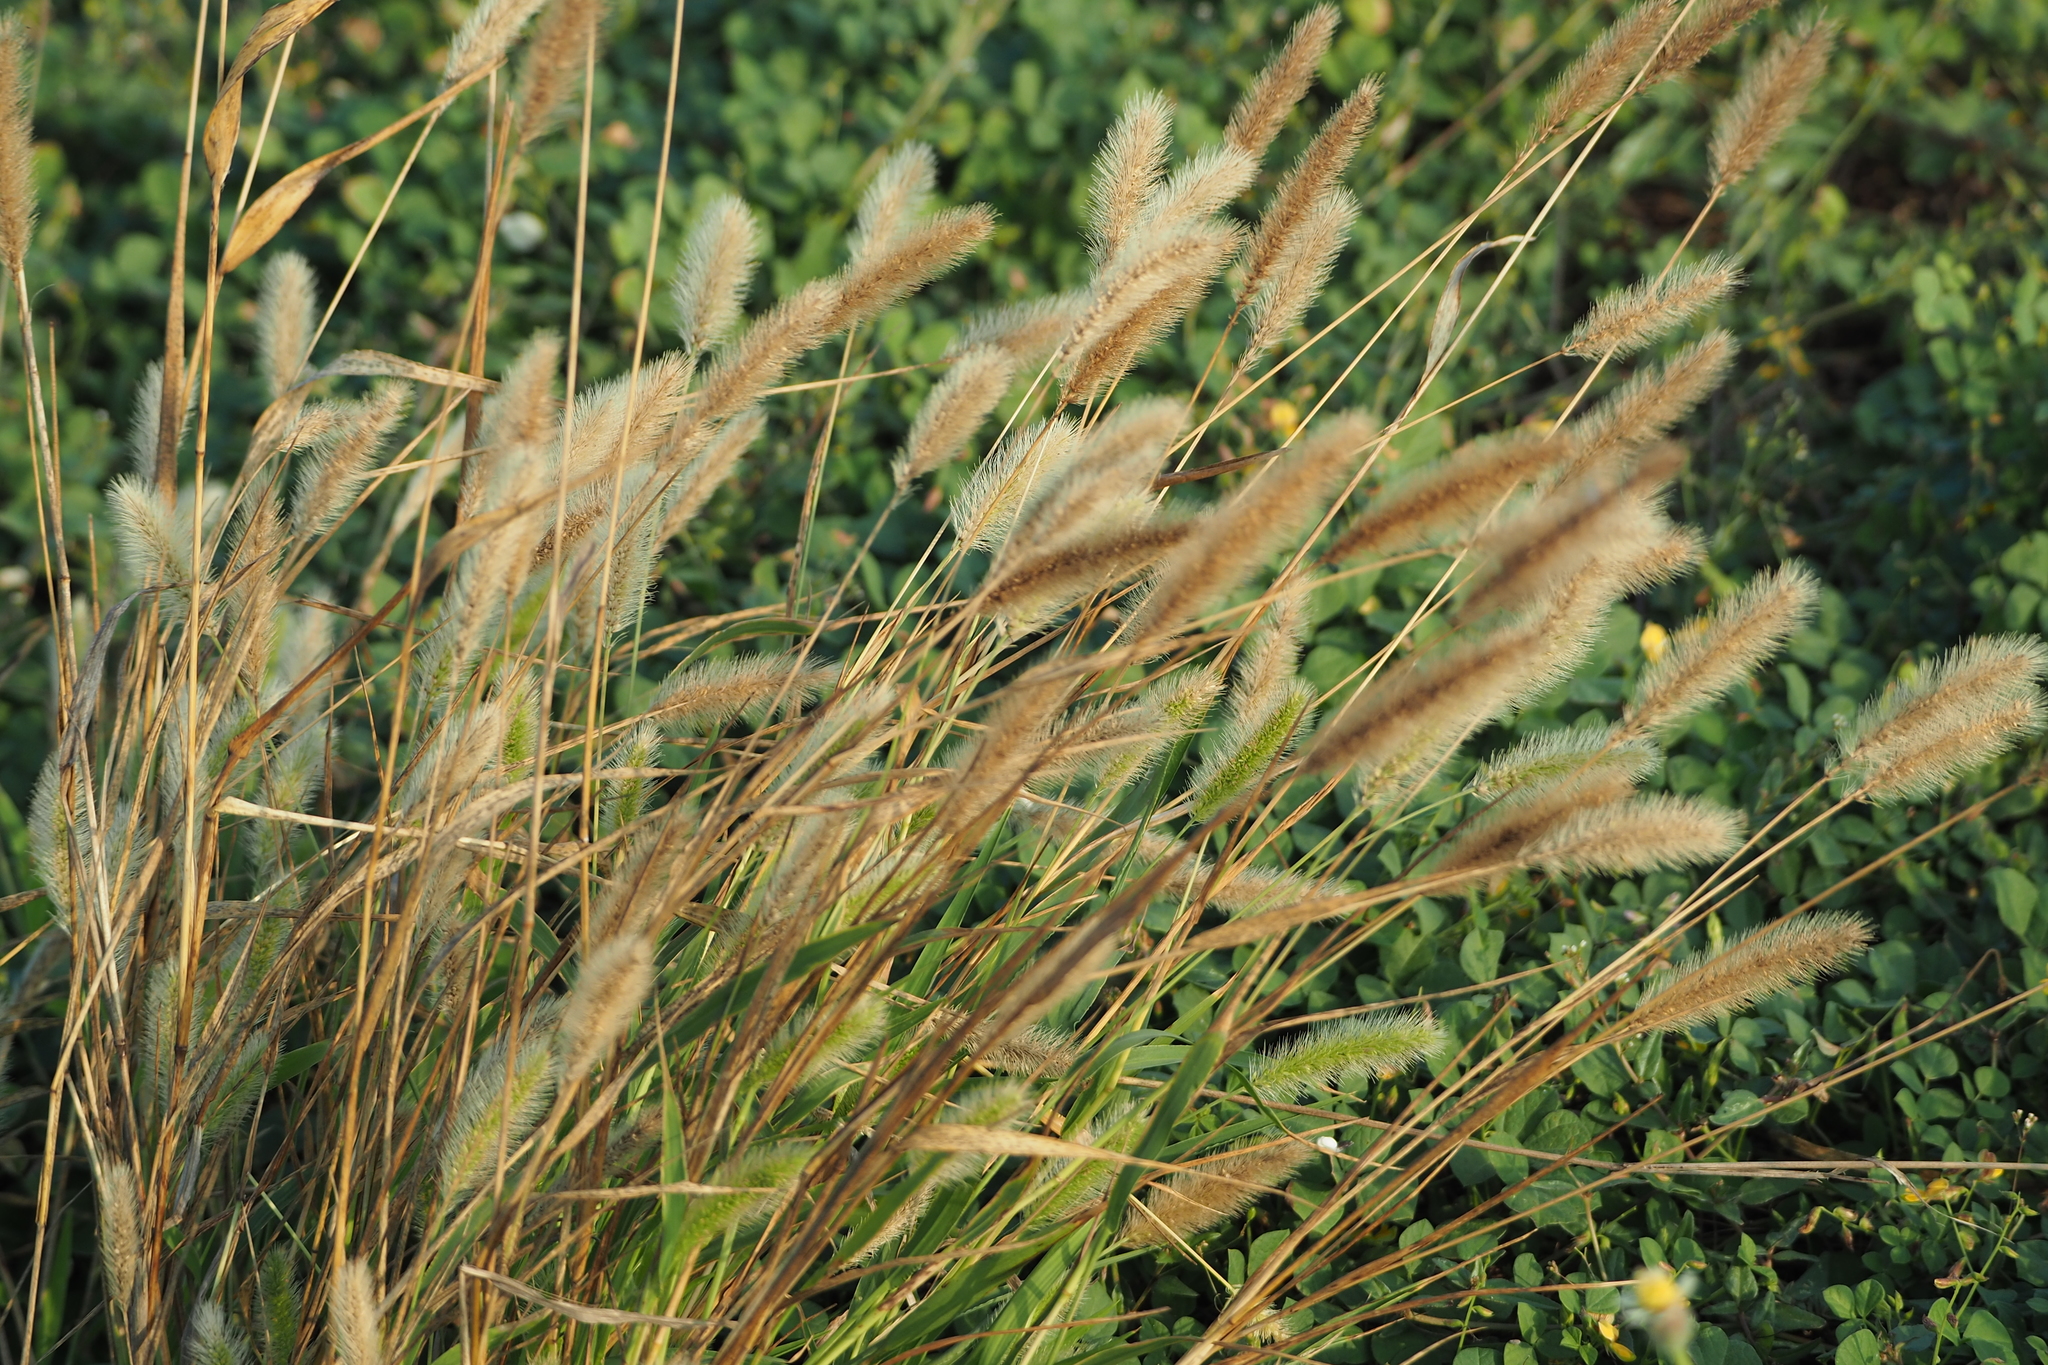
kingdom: Plantae
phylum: Tracheophyta
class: Liliopsida
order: Poales
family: Poaceae
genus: Setaria
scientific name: Setaria viridis
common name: Green bristlegrass
